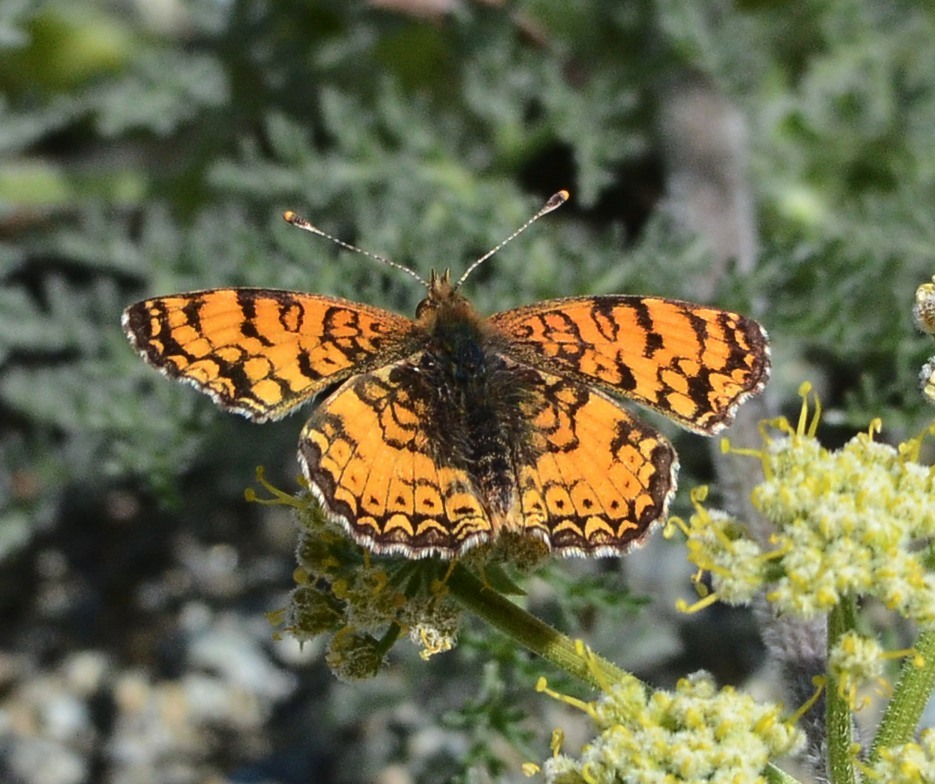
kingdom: Animalia
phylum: Arthropoda
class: Insecta
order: Lepidoptera
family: Nymphalidae
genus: Eresia
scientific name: Eresia aveyrona
